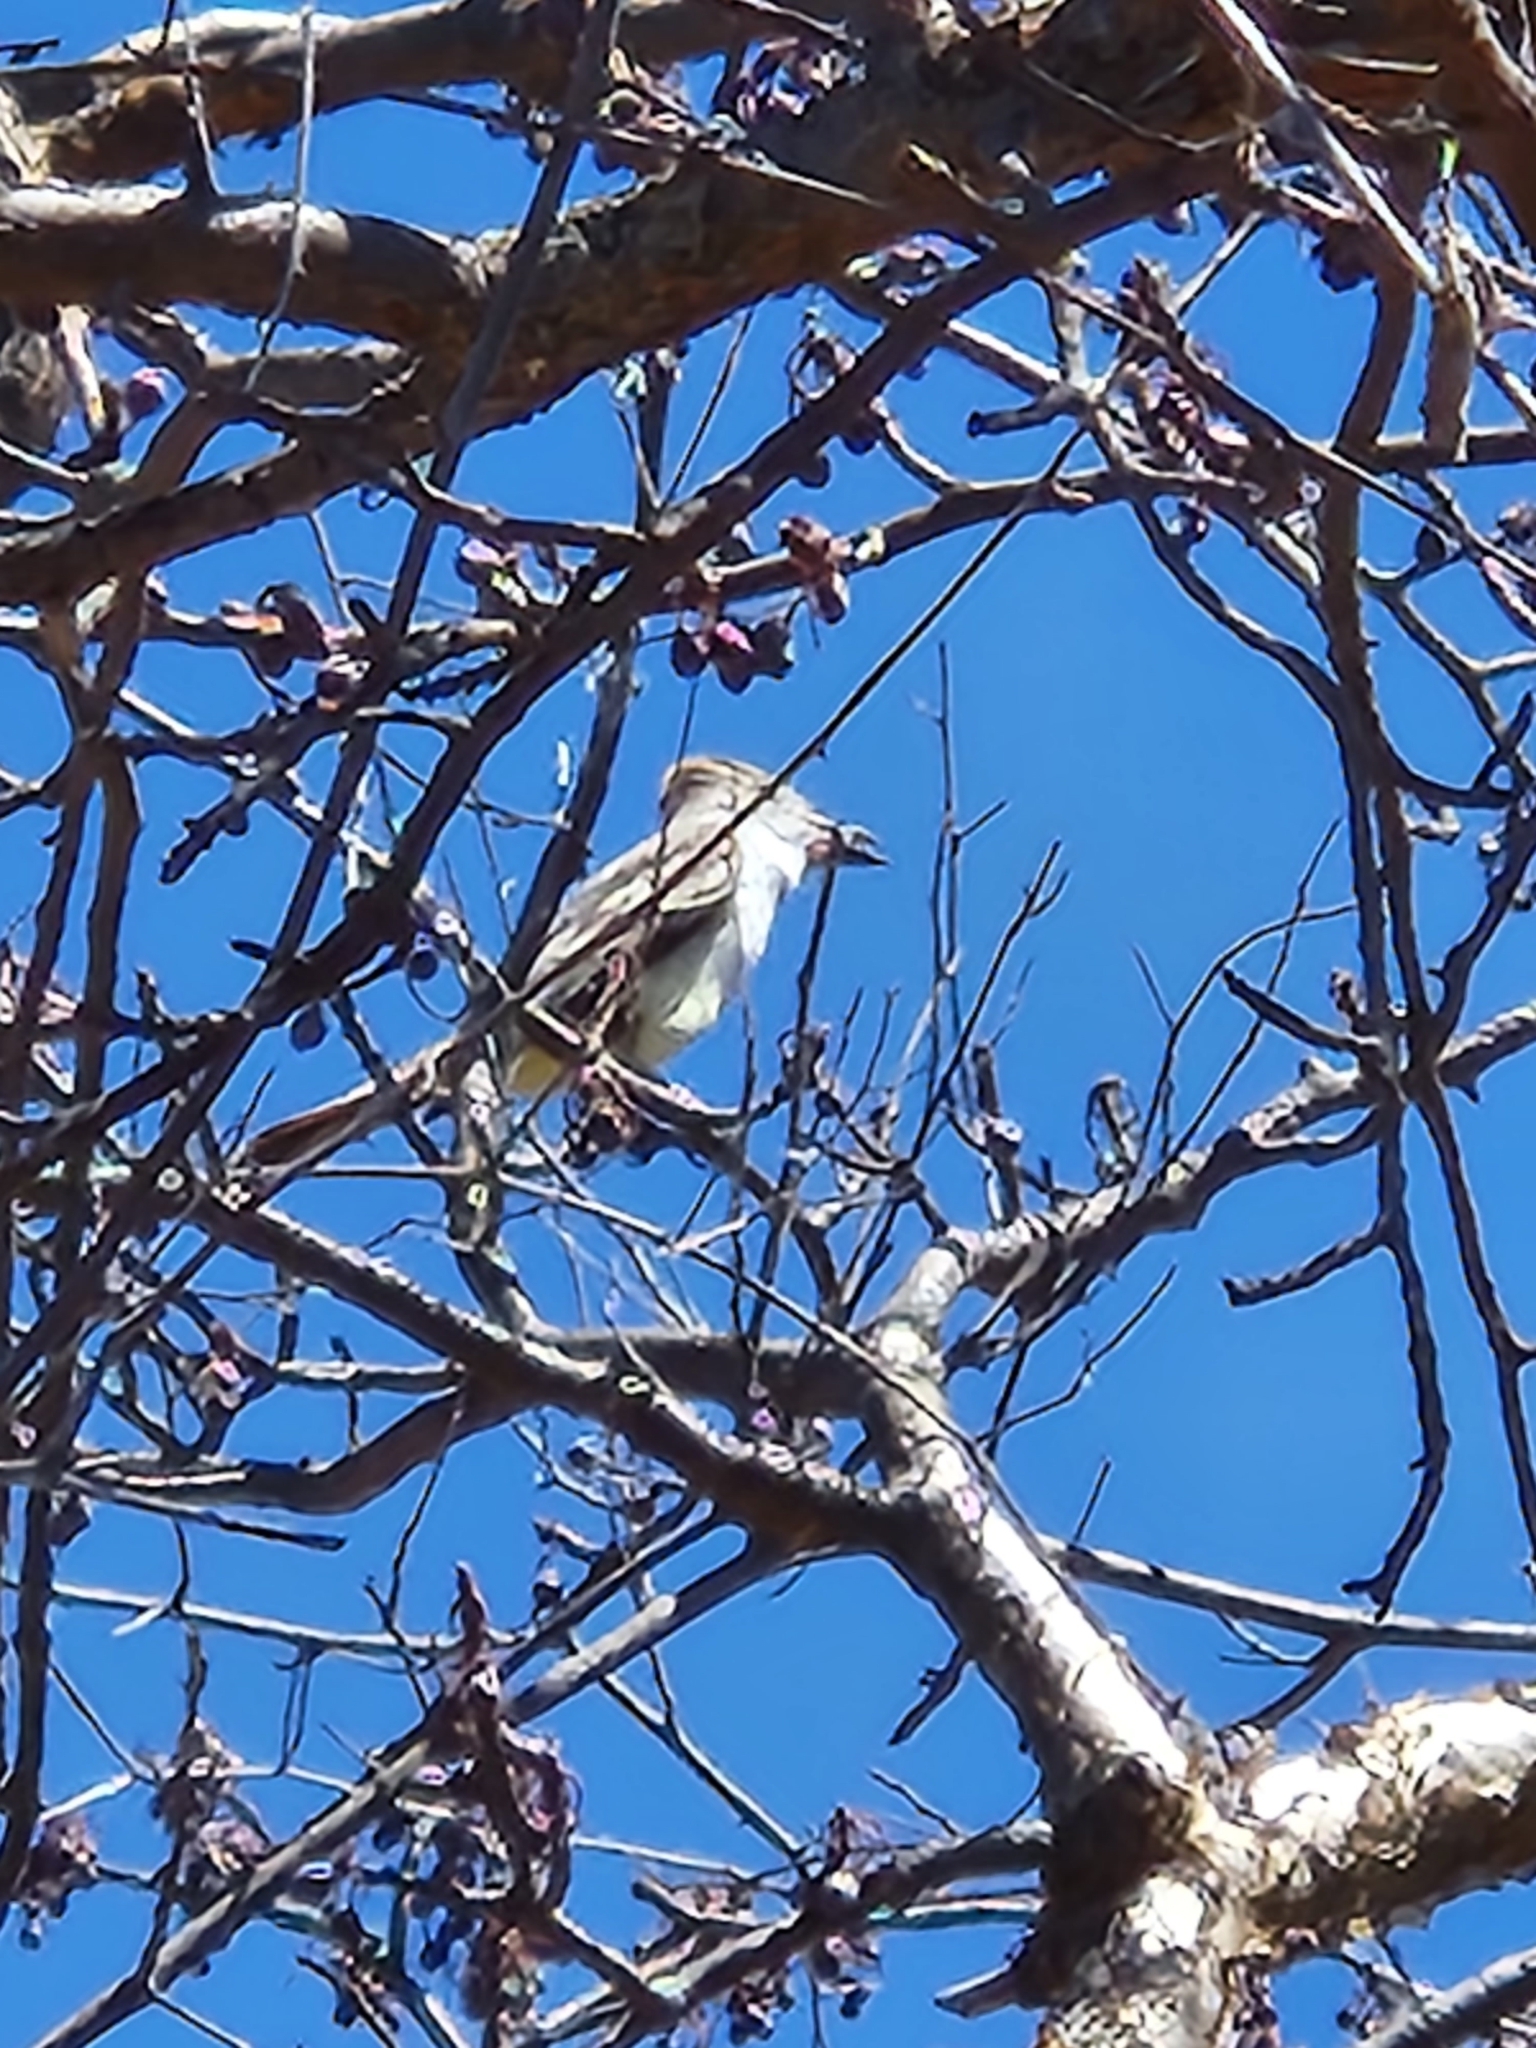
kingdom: Animalia
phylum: Chordata
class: Aves
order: Passeriformes
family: Tyrannidae
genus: Myiarchus
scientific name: Myiarchus cinerascens
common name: Ash-throated flycatcher
